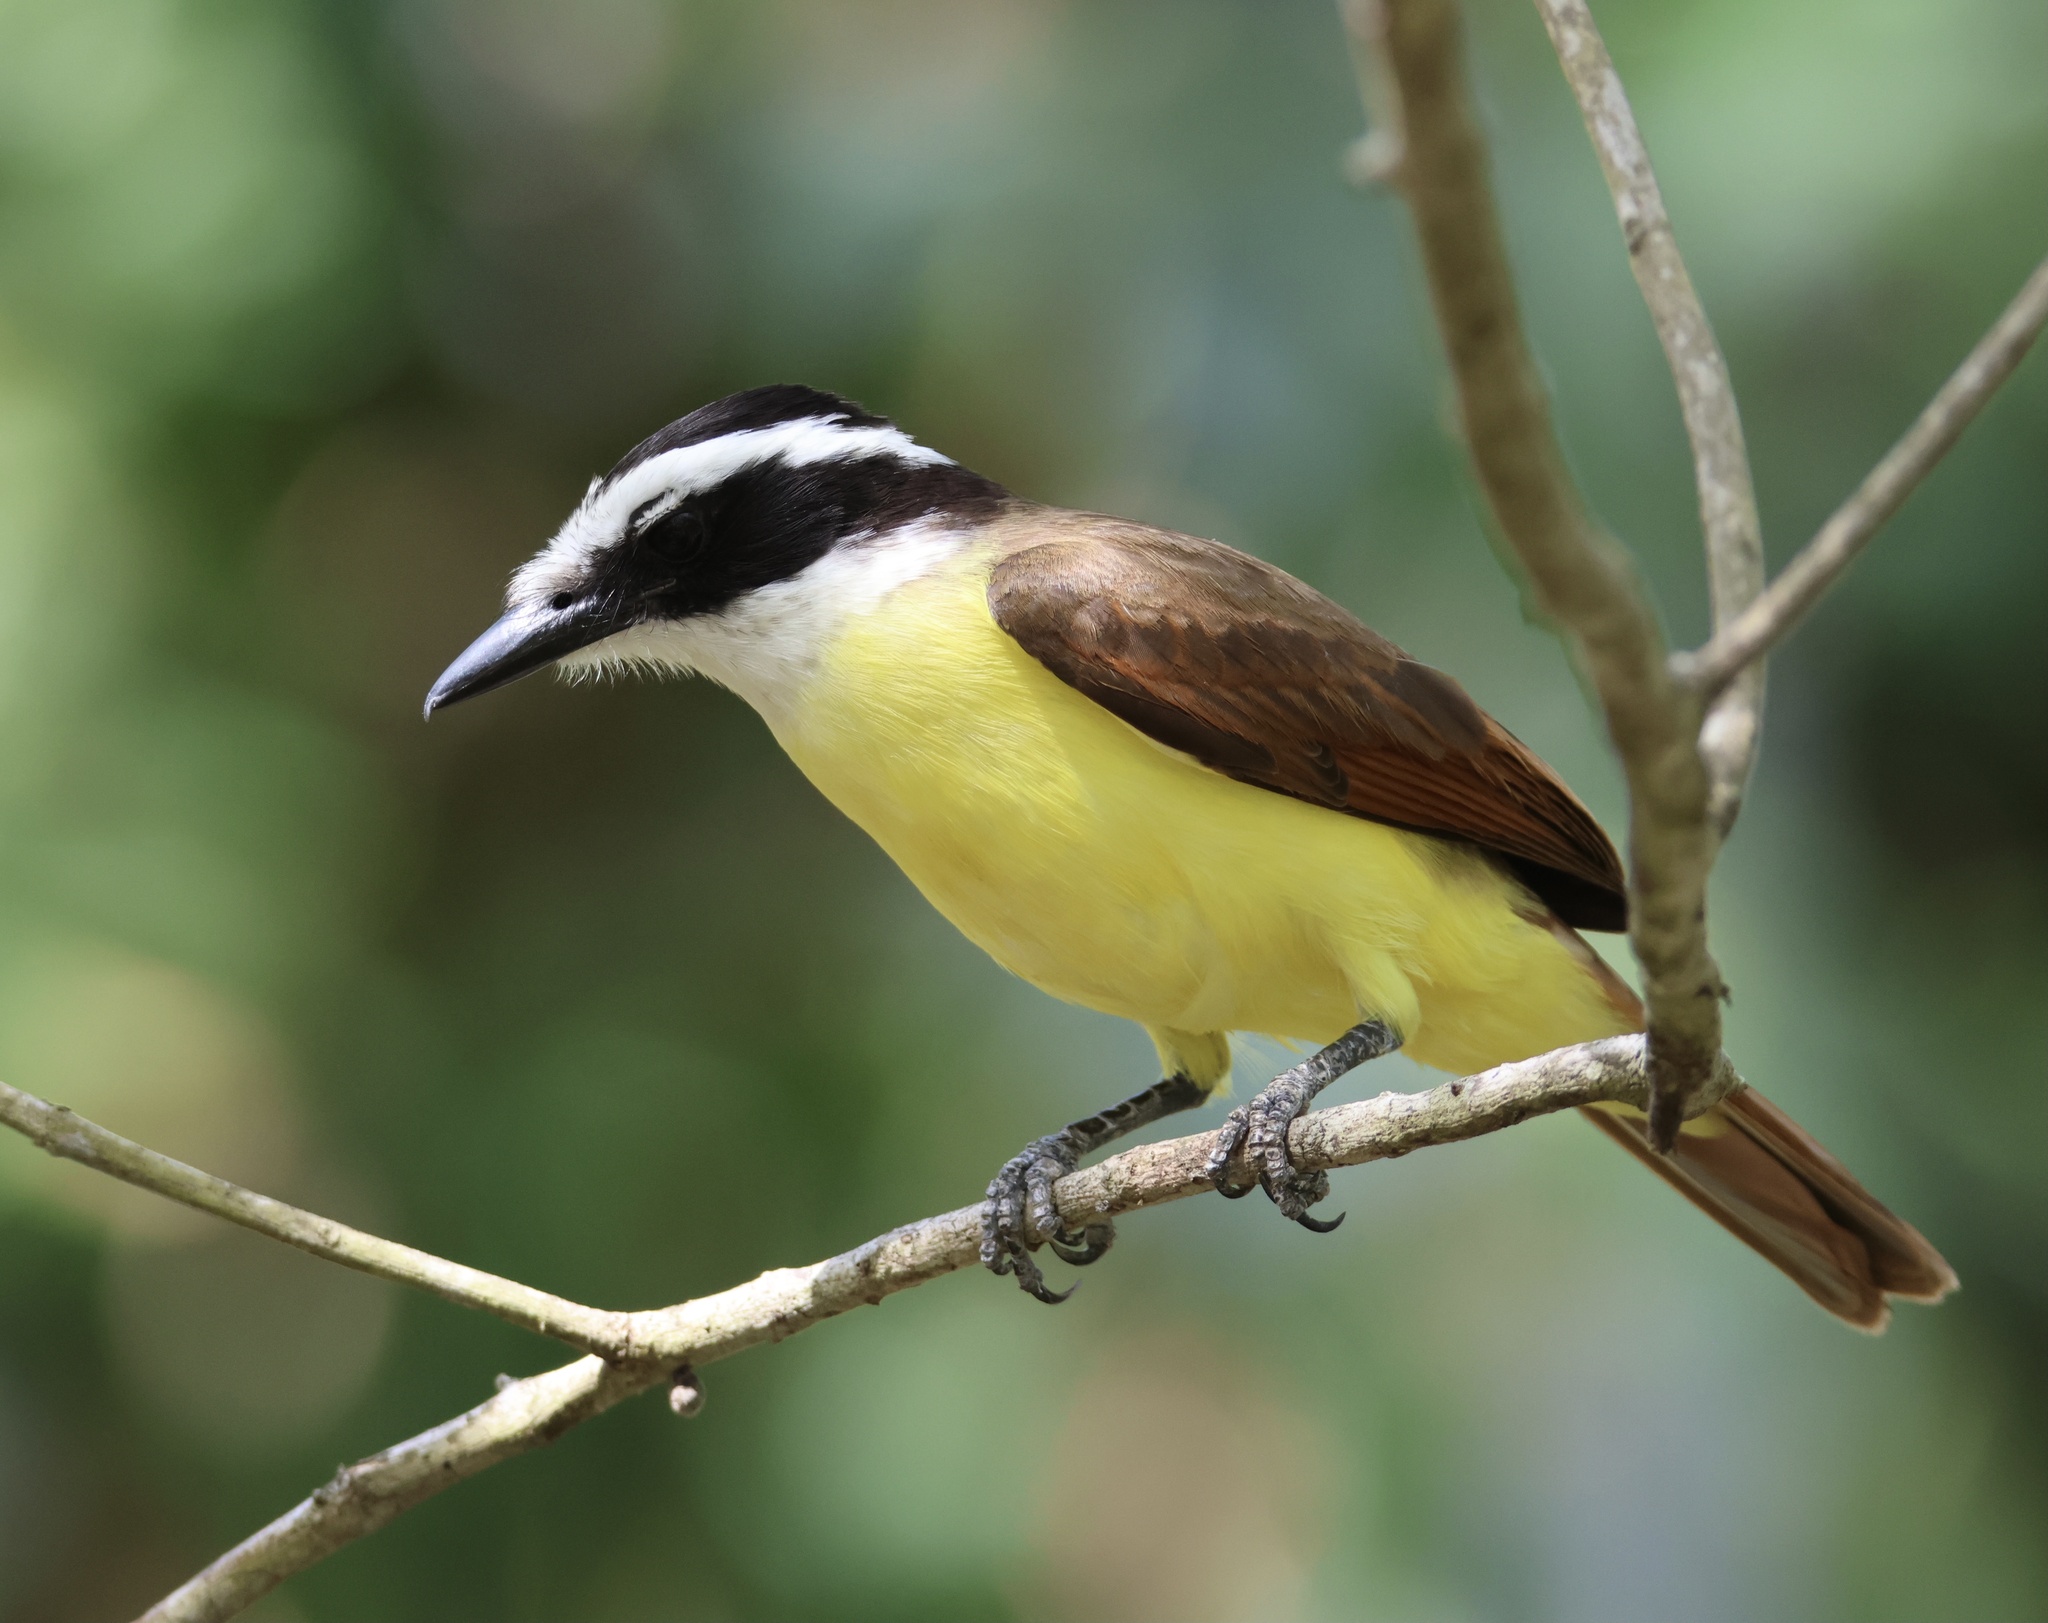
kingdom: Animalia
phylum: Chordata
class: Aves
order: Passeriformes
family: Tyrannidae
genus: Pitangus
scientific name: Pitangus sulphuratus
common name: Great kiskadee
